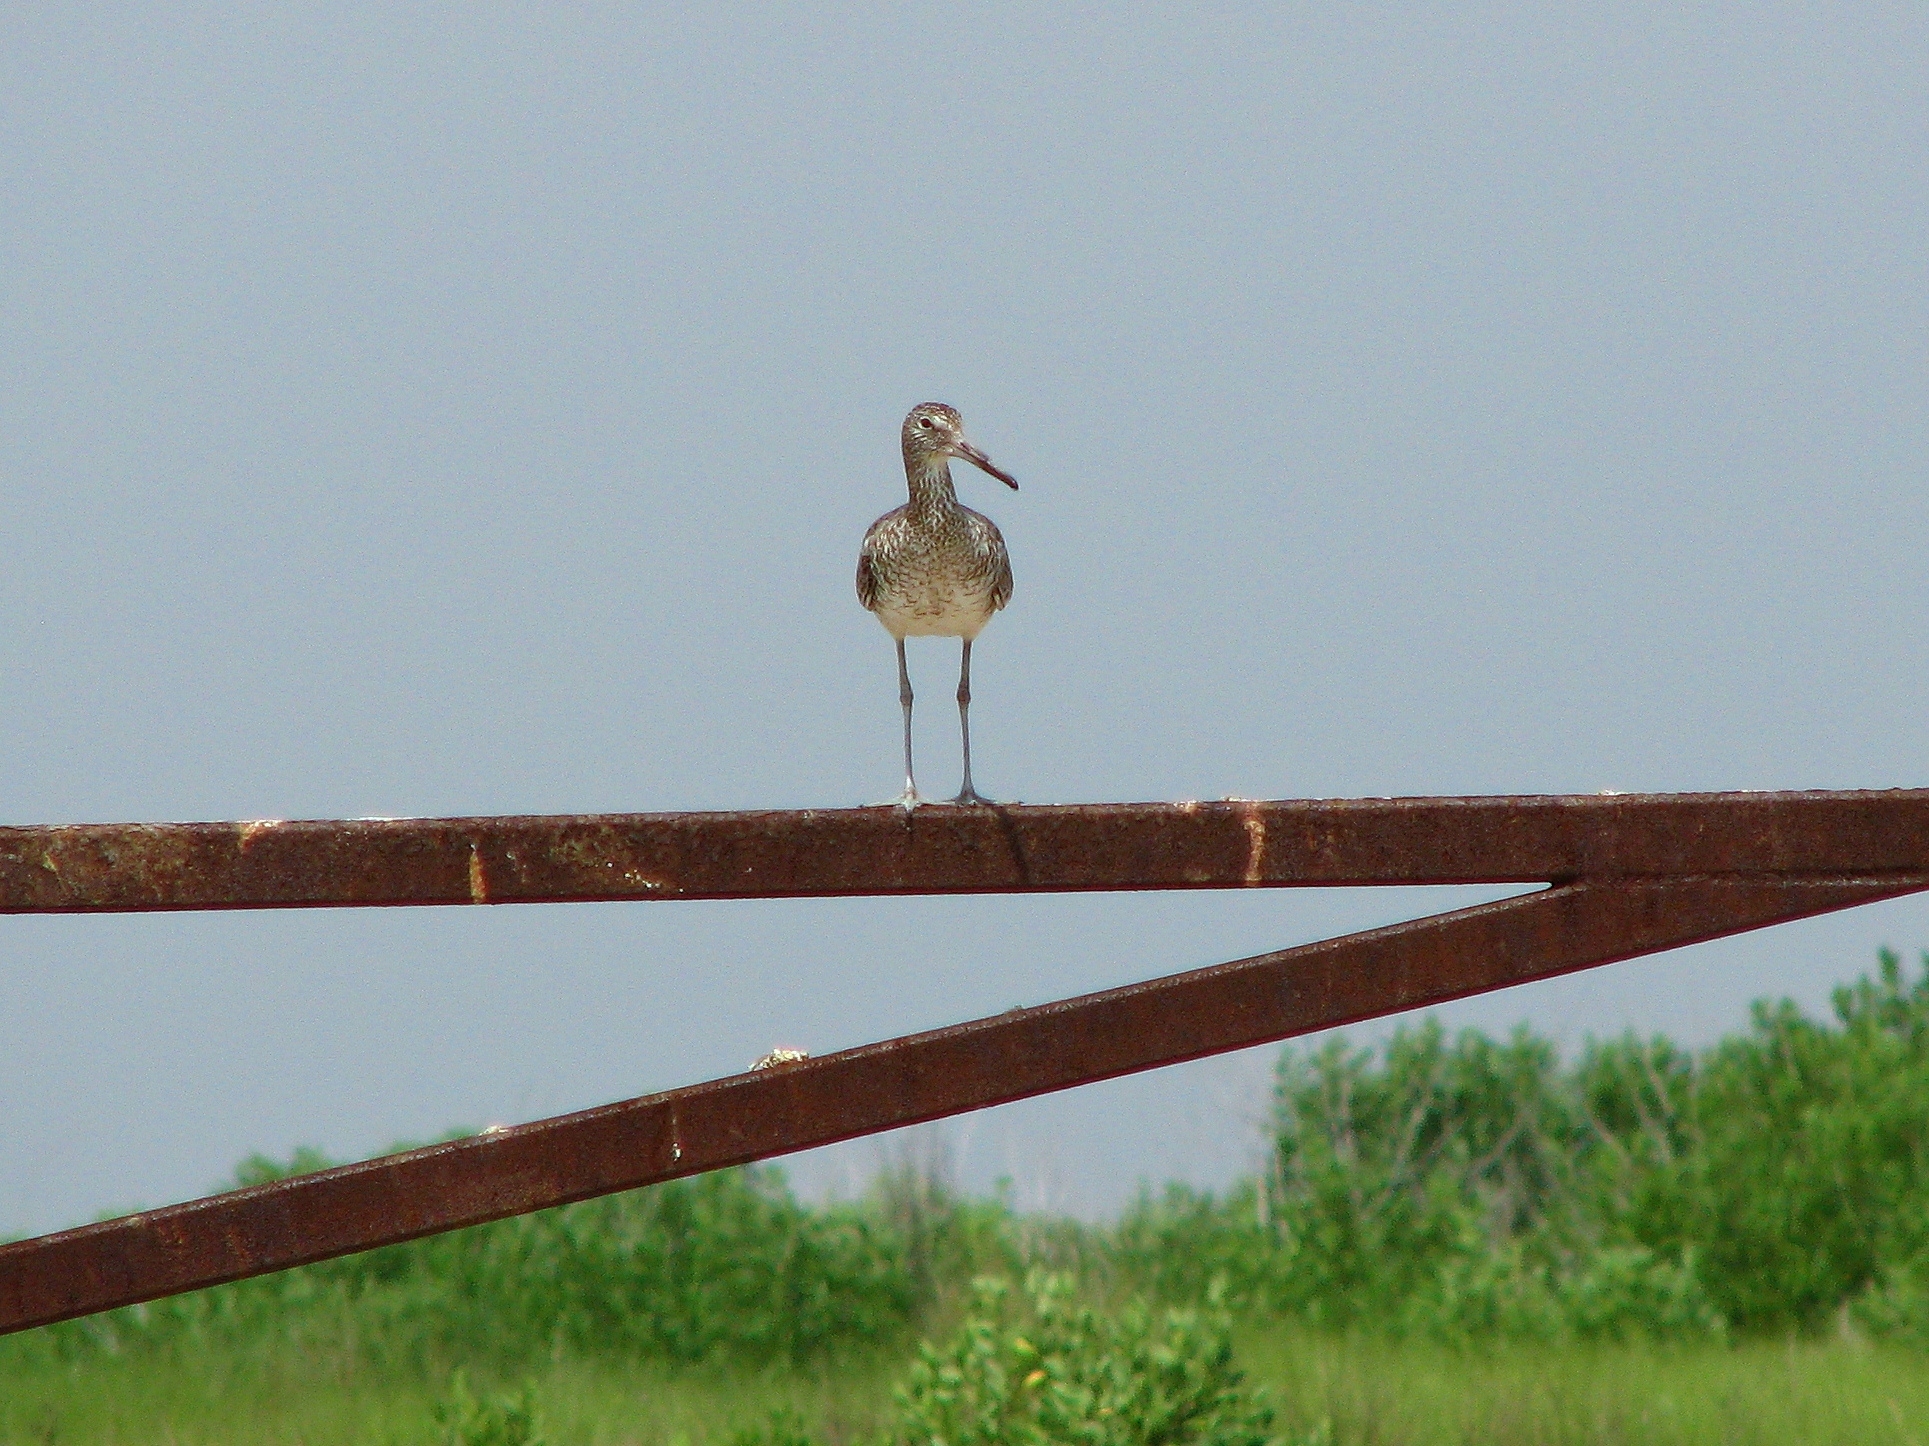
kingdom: Animalia
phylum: Chordata
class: Aves
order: Charadriiformes
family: Scolopacidae
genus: Tringa
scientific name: Tringa semipalmata
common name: Willet
